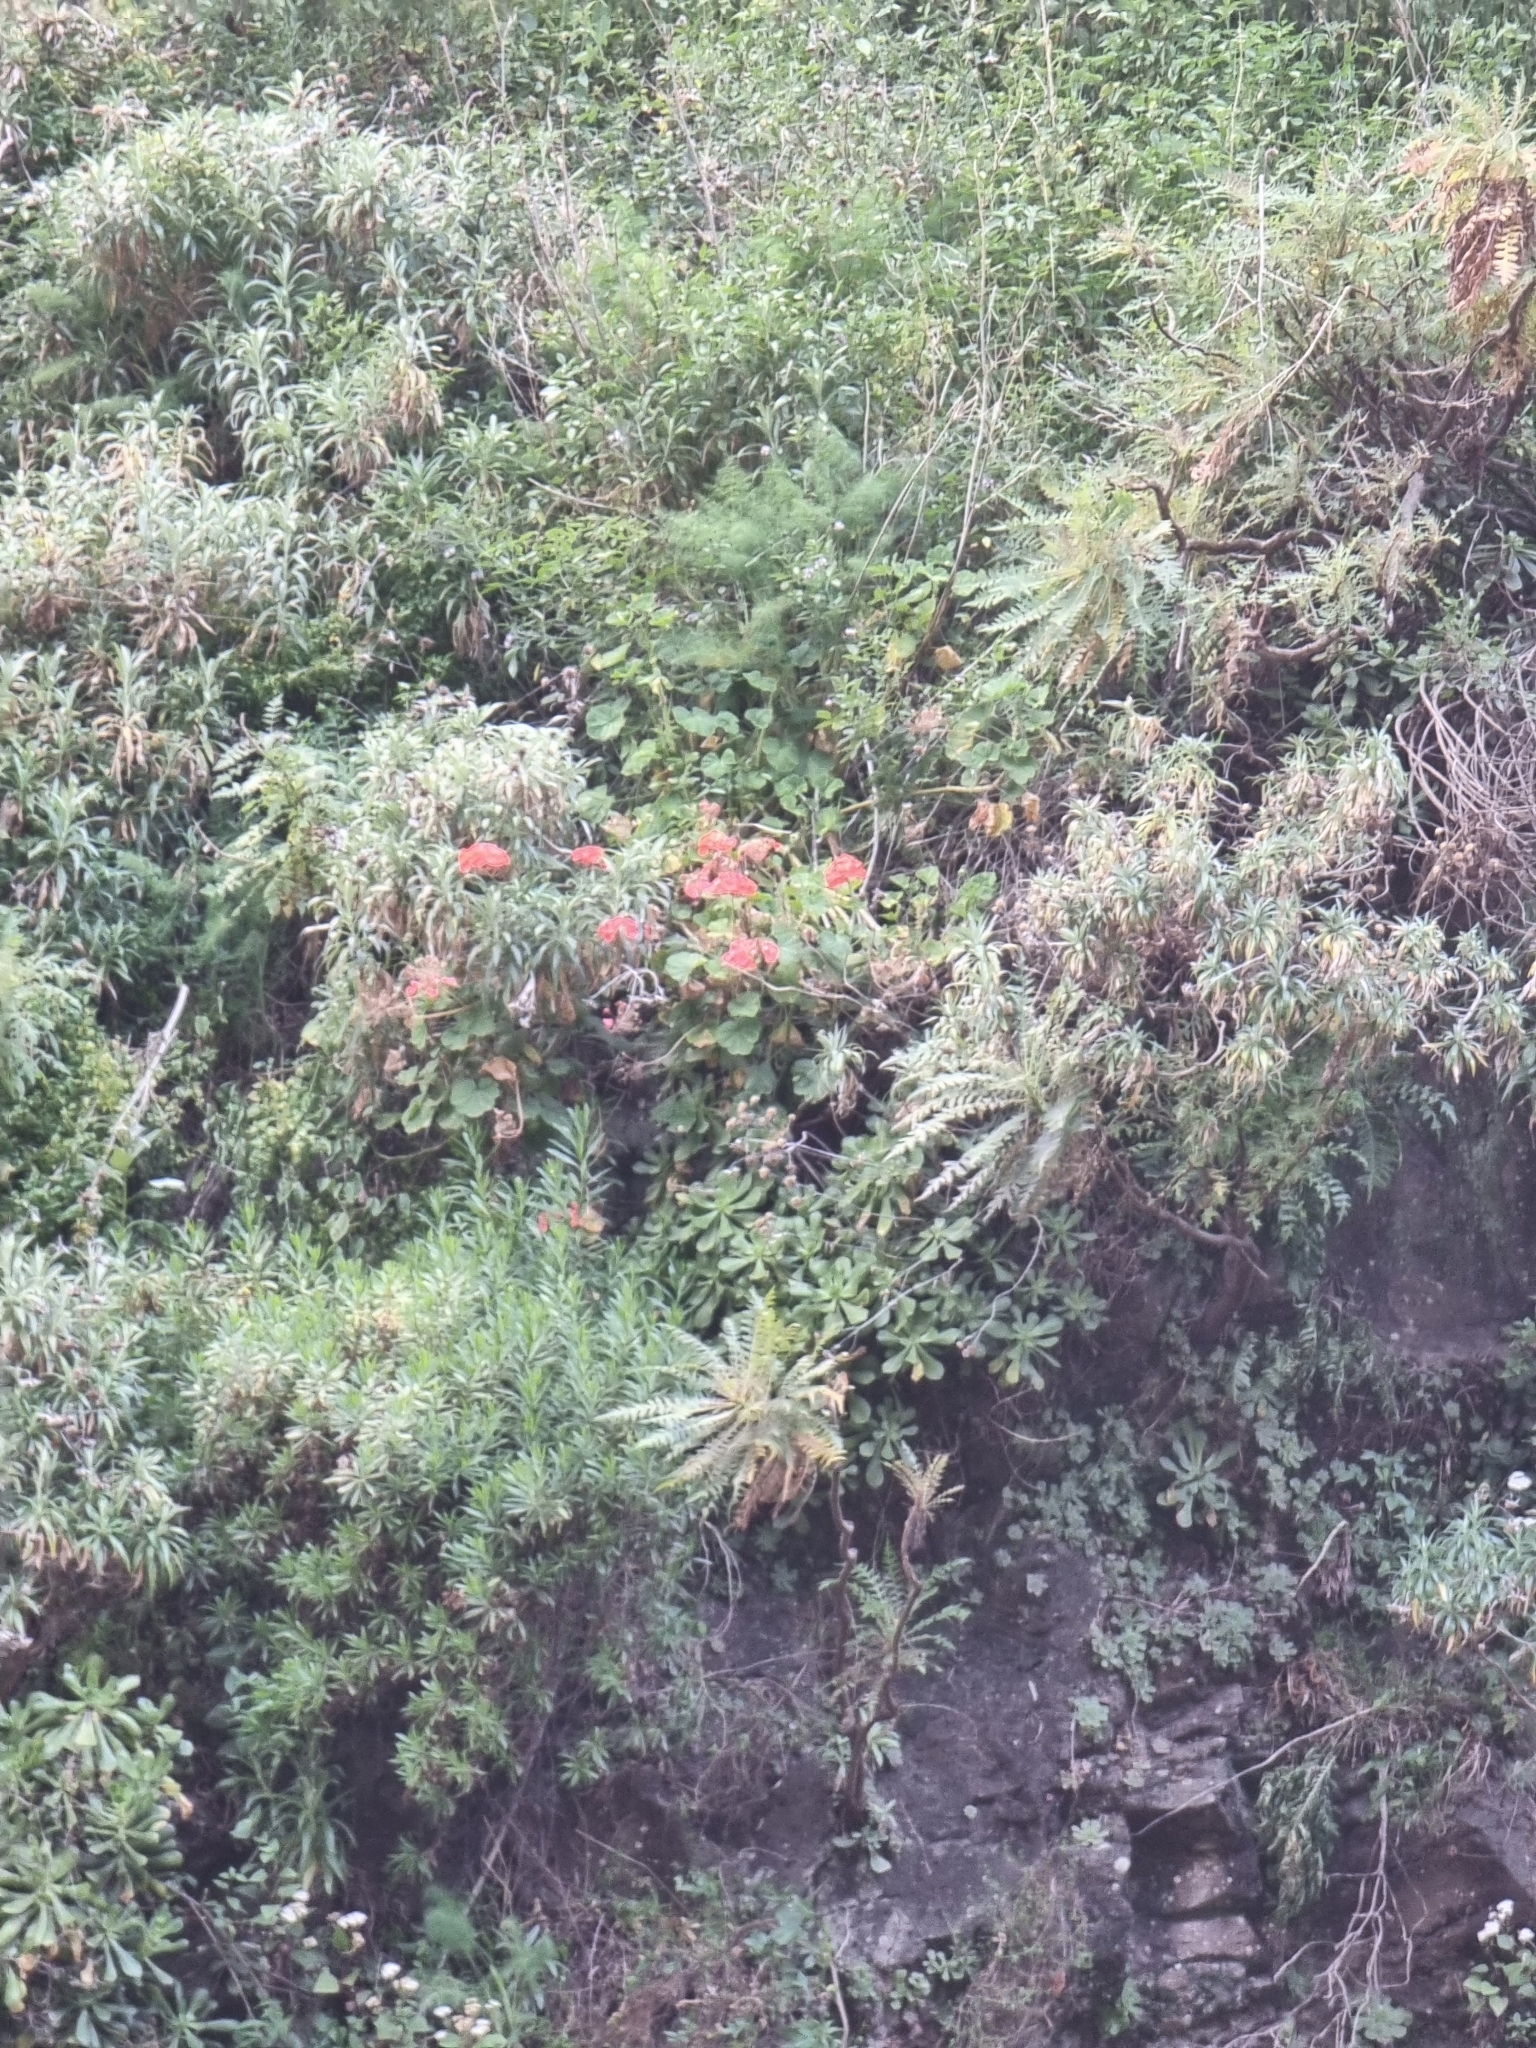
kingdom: Plantae
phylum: Tracheophyta
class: Magnoliopsida
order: Geraniales
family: Geraniaceae
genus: Pelargonium
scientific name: Pelargonium hybridum
